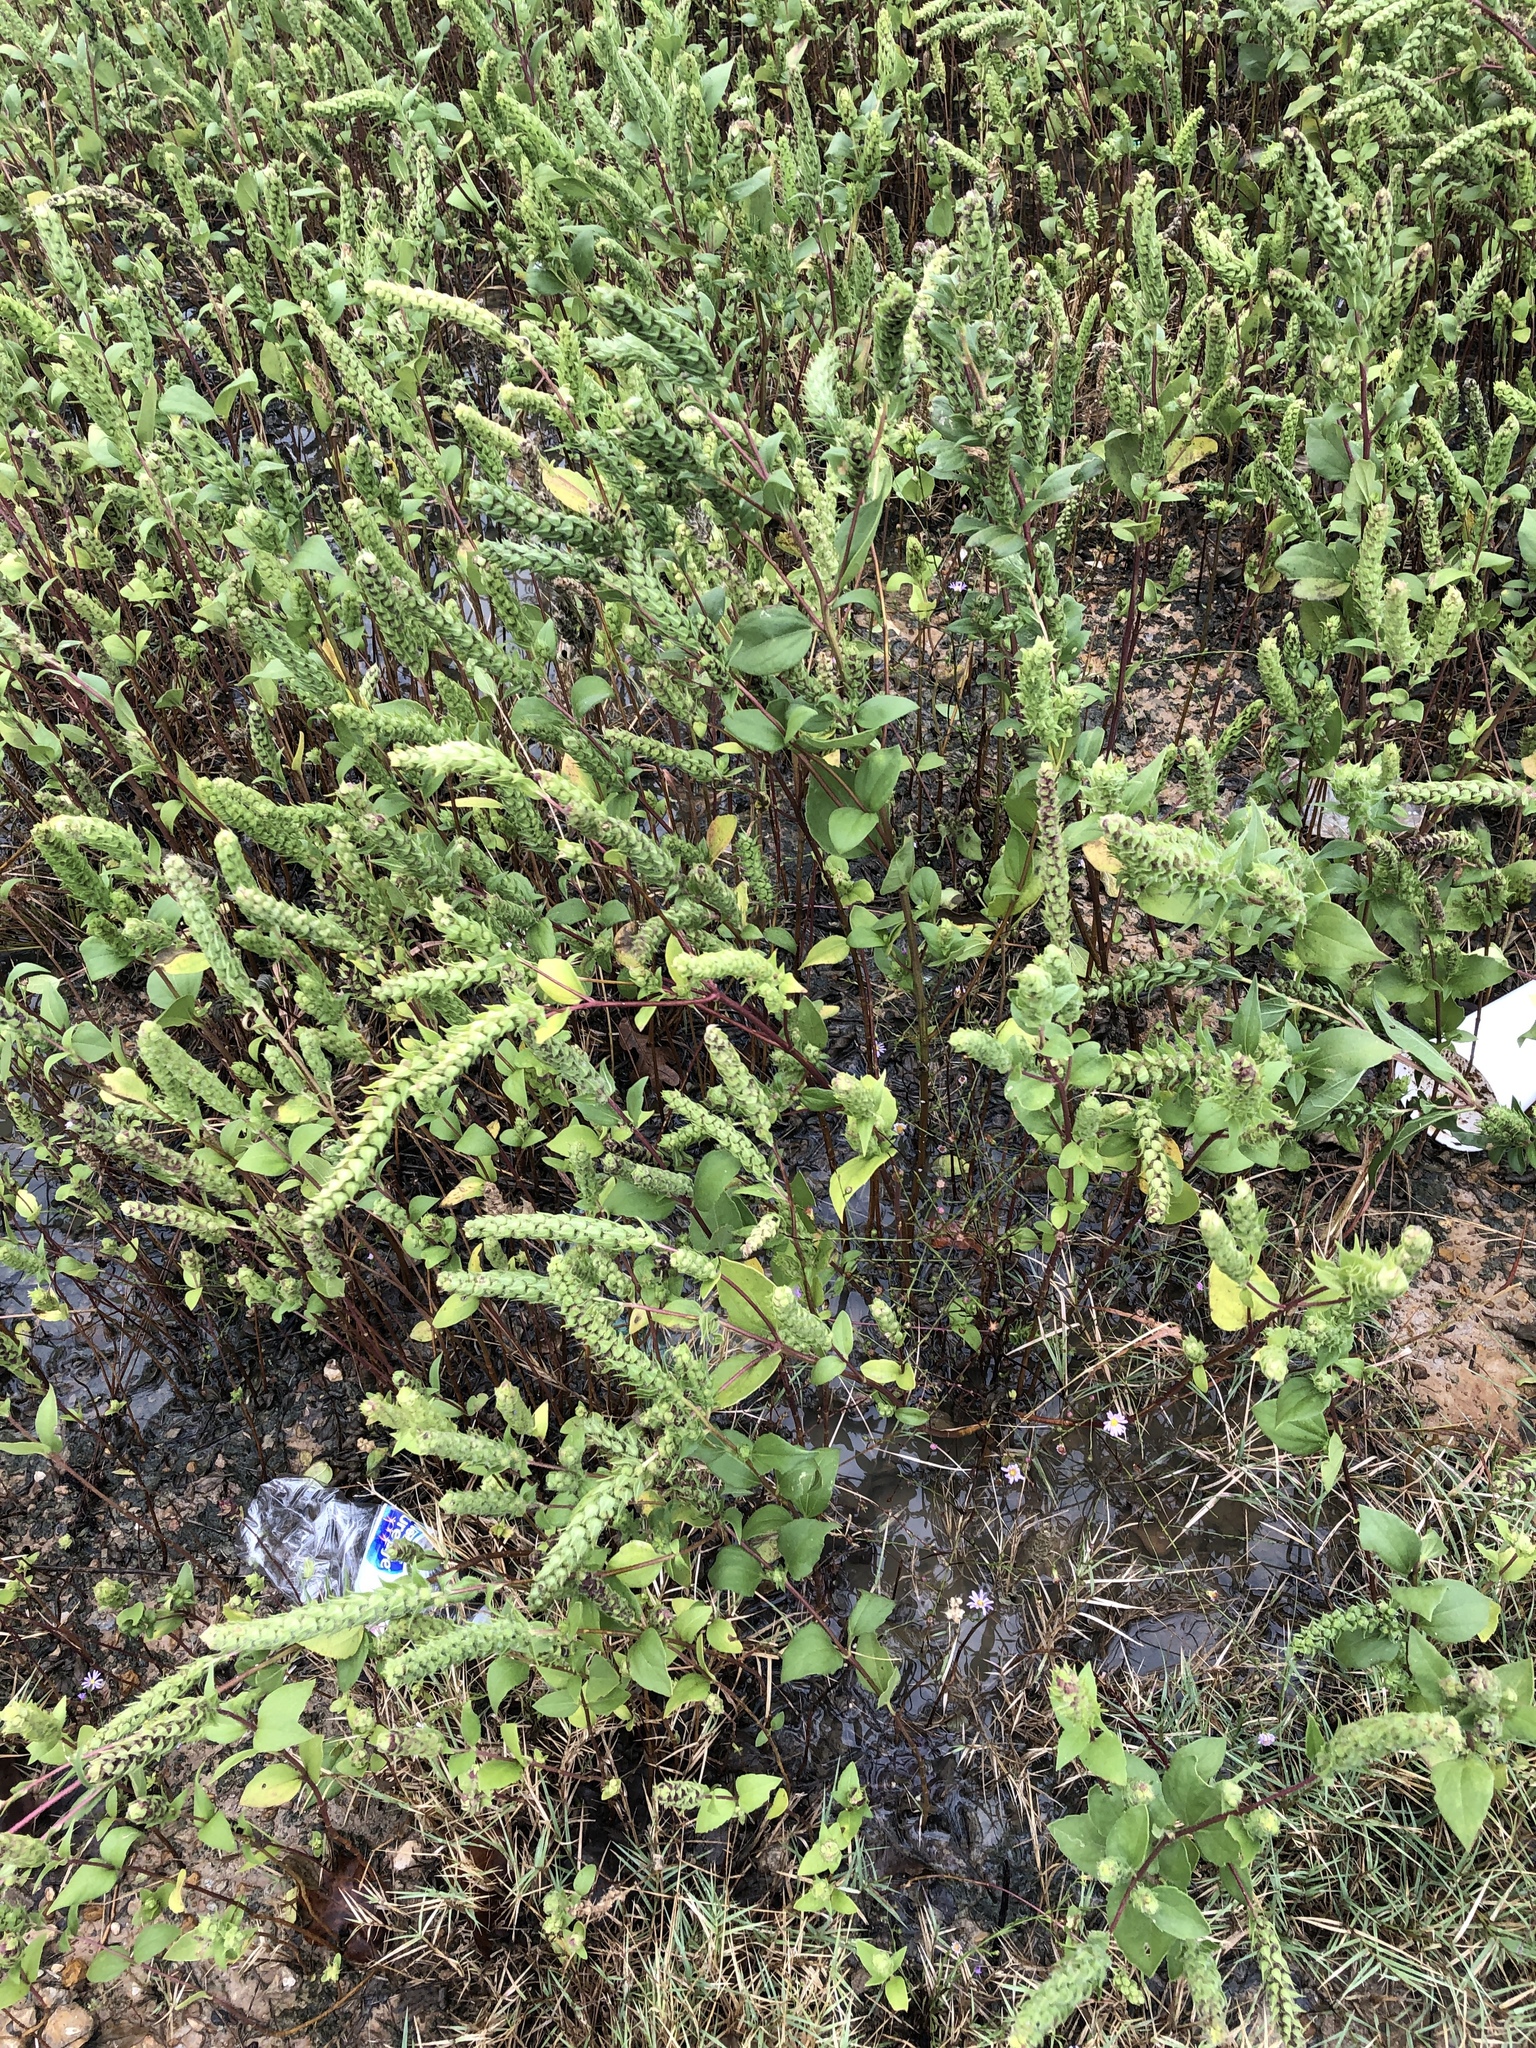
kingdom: Plantae
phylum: Tracheophyta
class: Magnoliopsida
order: Asterales
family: Asteraceae
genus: Iva
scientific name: Iva annua
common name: Marsh-elder
